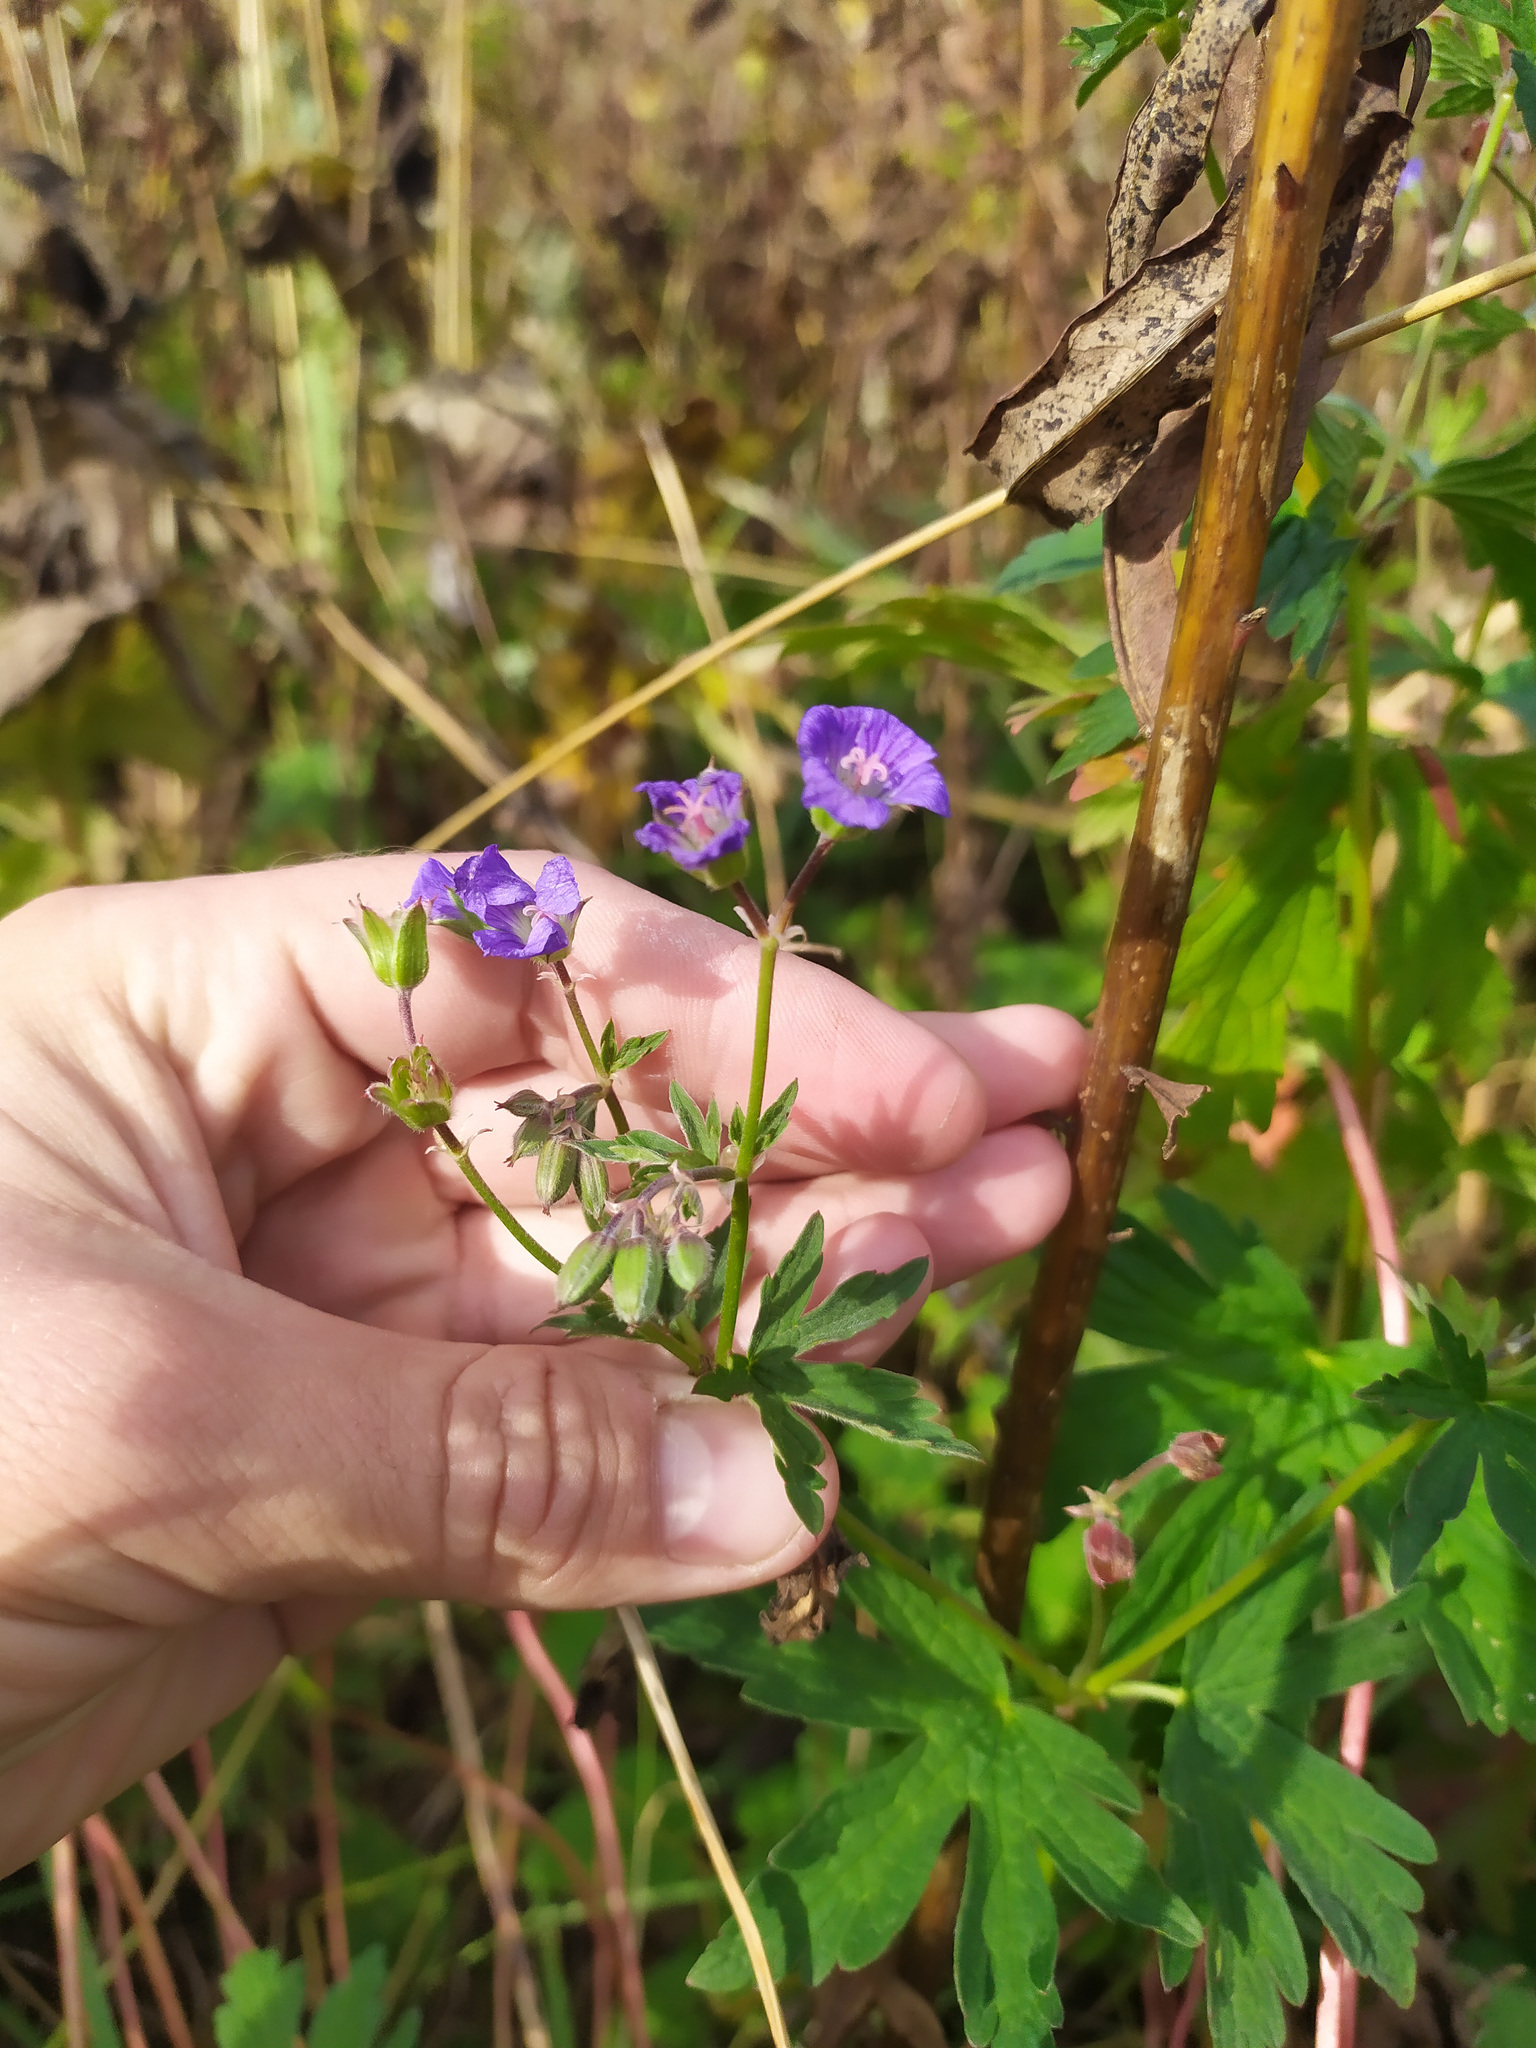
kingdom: Plantae
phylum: Tracheophyta
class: Magnoliopsida
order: Geraniales
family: Geraniaceae
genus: Geranium
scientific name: Geranium sylvaticum
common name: Wood crane's-bill
